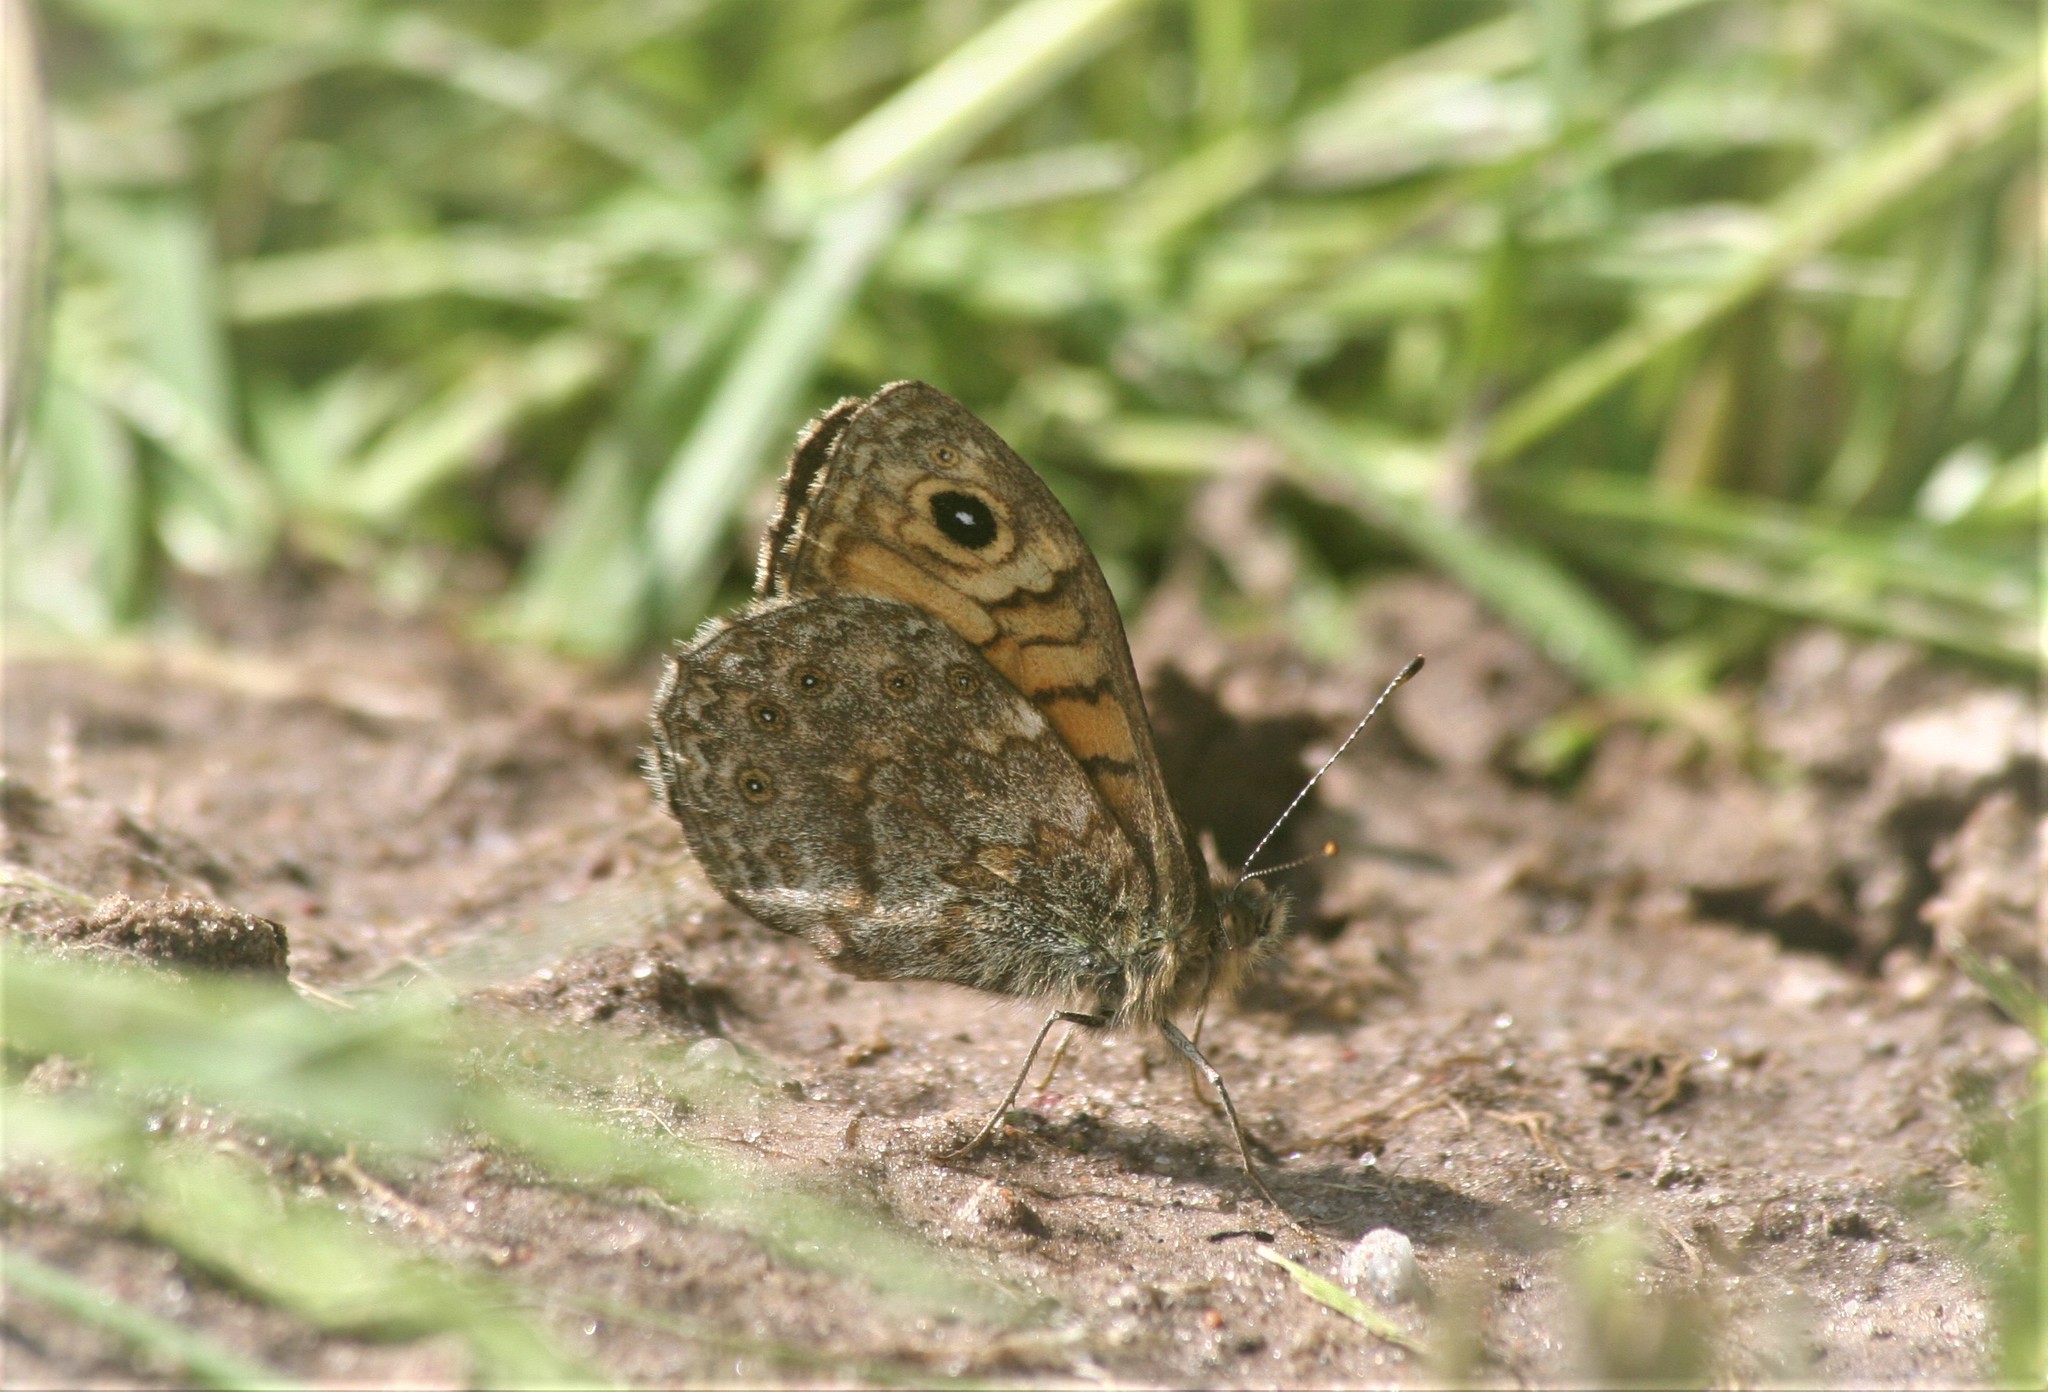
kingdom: Animalia
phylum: Arthropoda
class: Insecta
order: Lepidoptera
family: Nymphalidae
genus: Pararge
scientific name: Pararge Lasiommata megera
